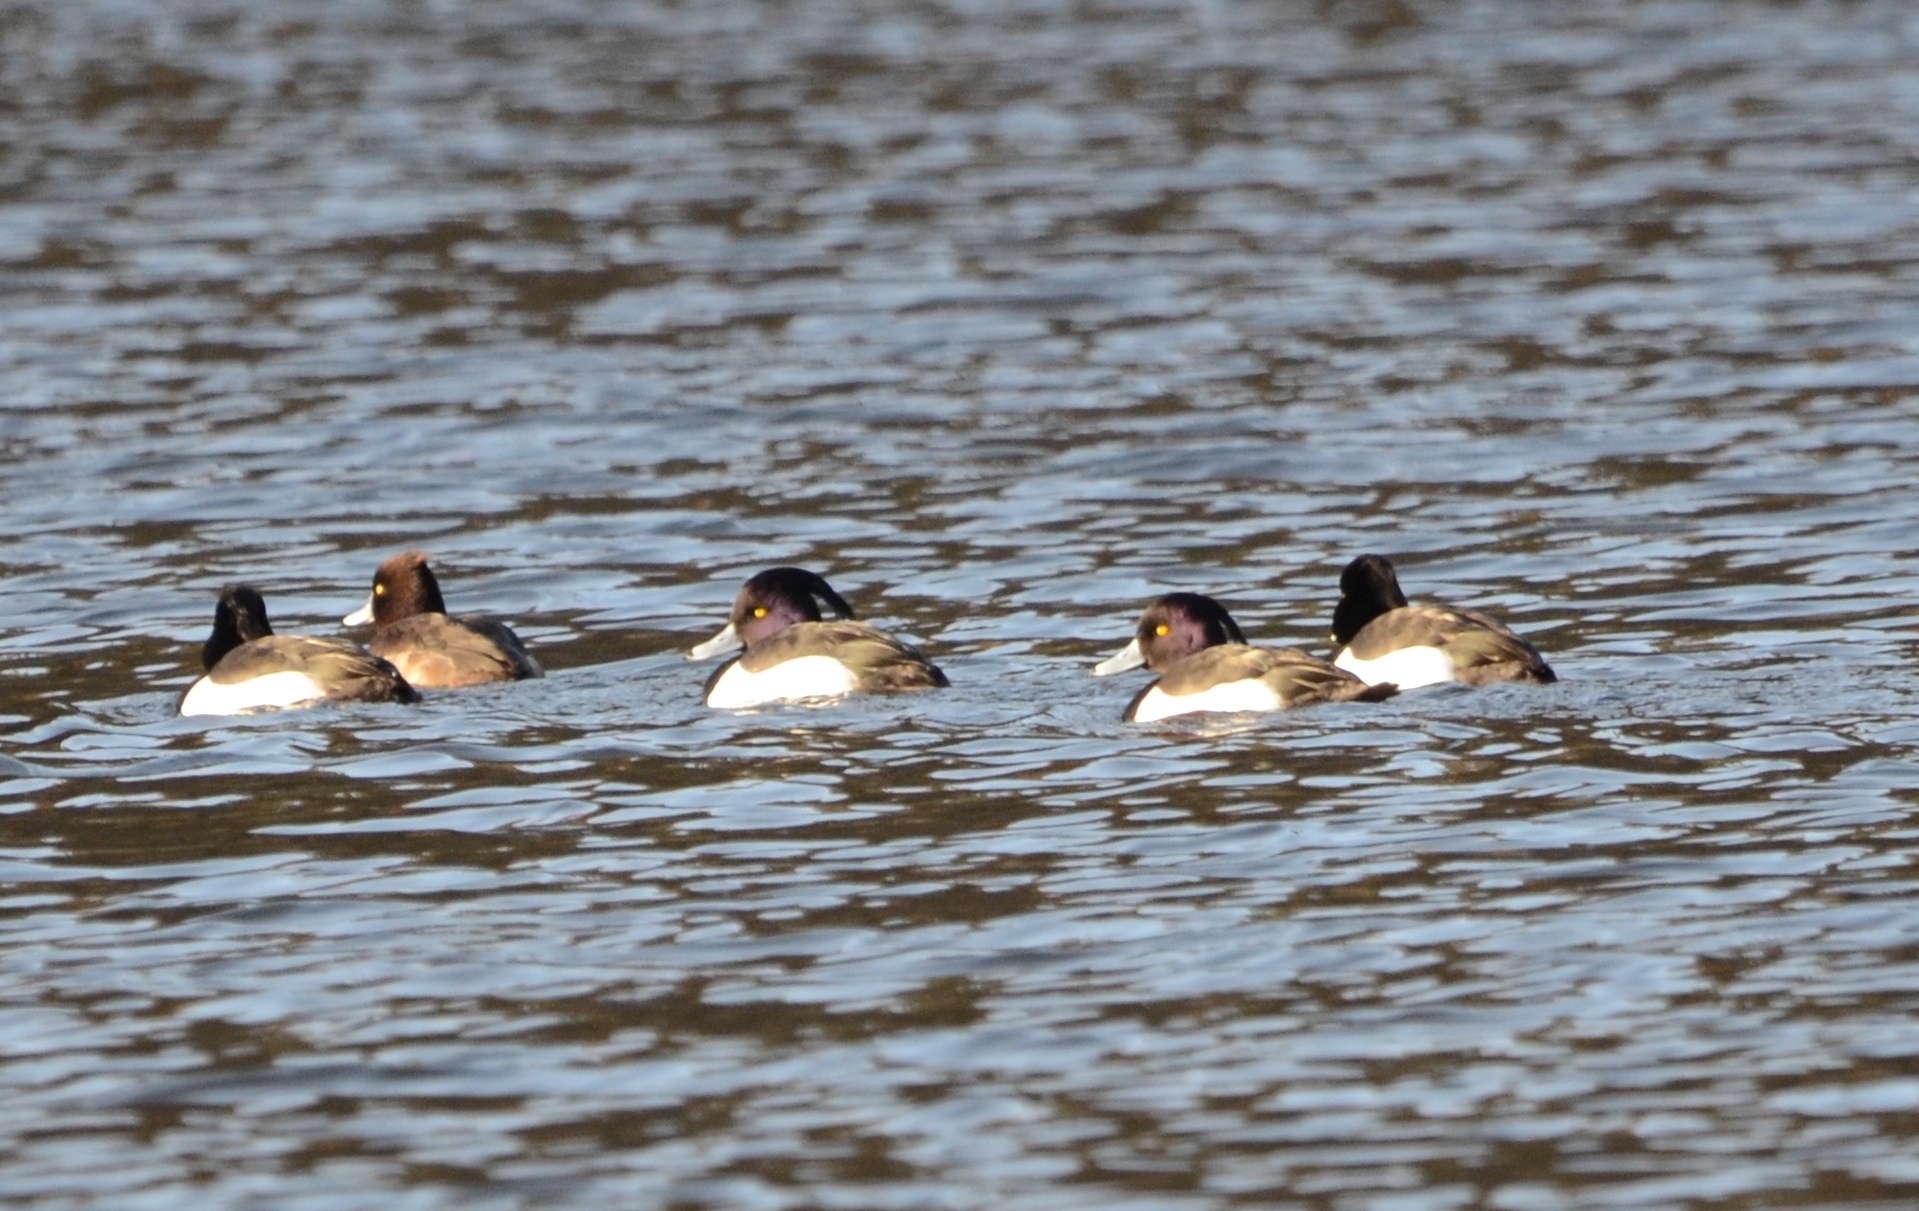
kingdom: Animalia
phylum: Chordata
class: Aves
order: Anseriformes
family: Anatidae
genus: Aythya
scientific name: Aythya fuligula
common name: Tufted duck
